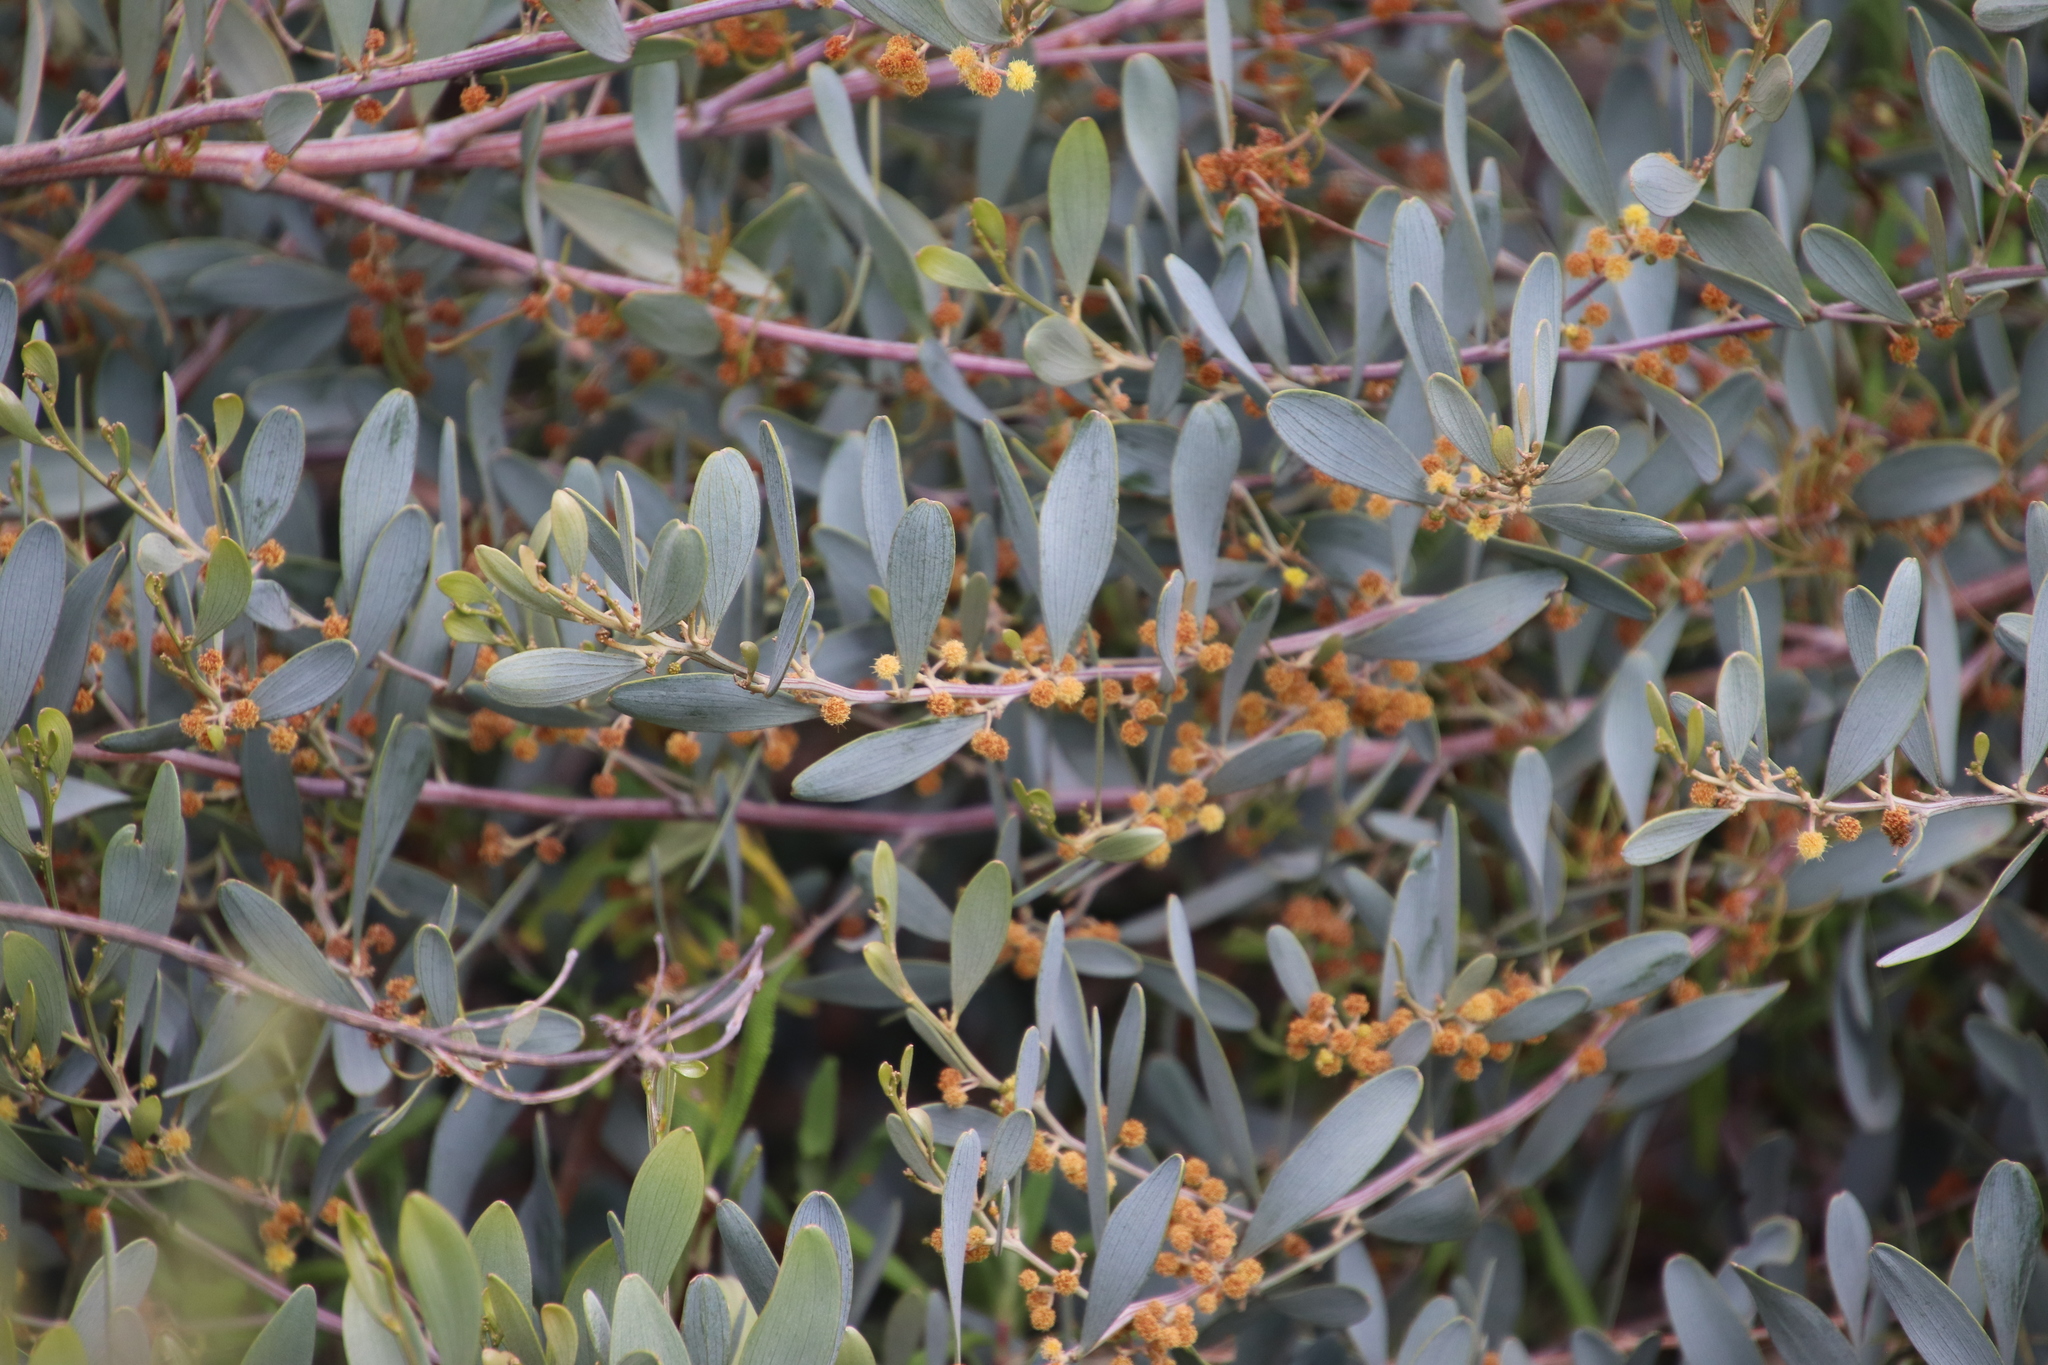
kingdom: Plantae
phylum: Tracheophyta
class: Magnoliopsida
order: Fabales
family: Fabaceae
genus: Acacia
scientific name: Acacia redolens
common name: Bank catclaw
